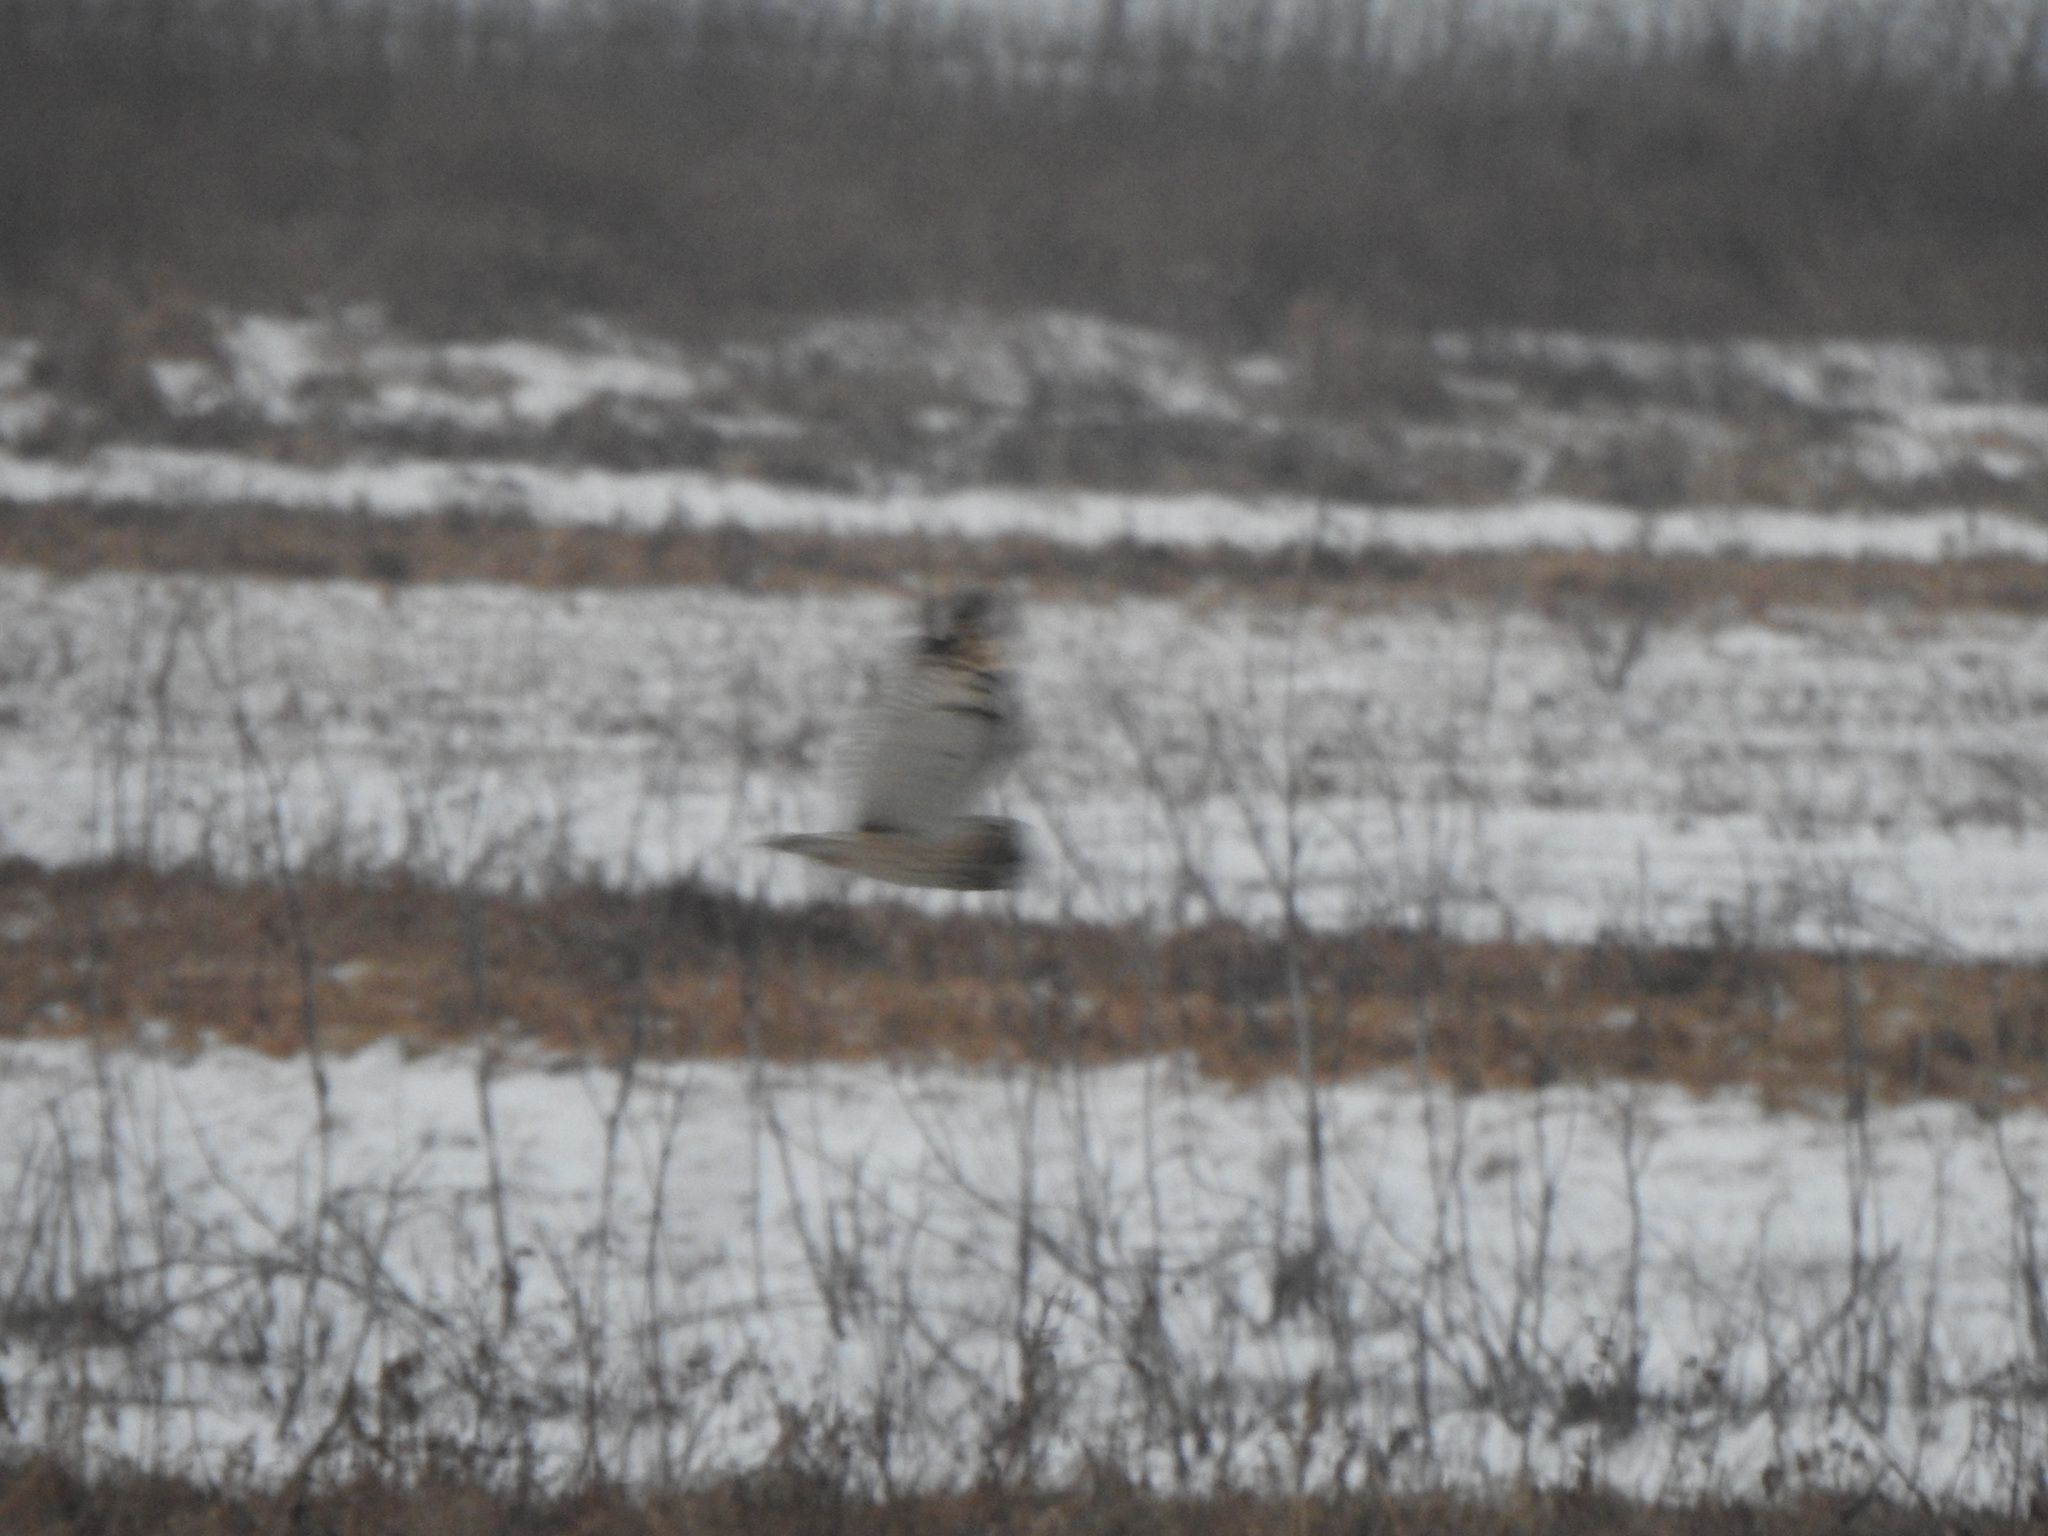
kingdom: Animalia
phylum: Chordata
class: Aves
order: Strigiformes
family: Strigidae
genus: Asio
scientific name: Asio flammeus
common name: Short-eared owl
